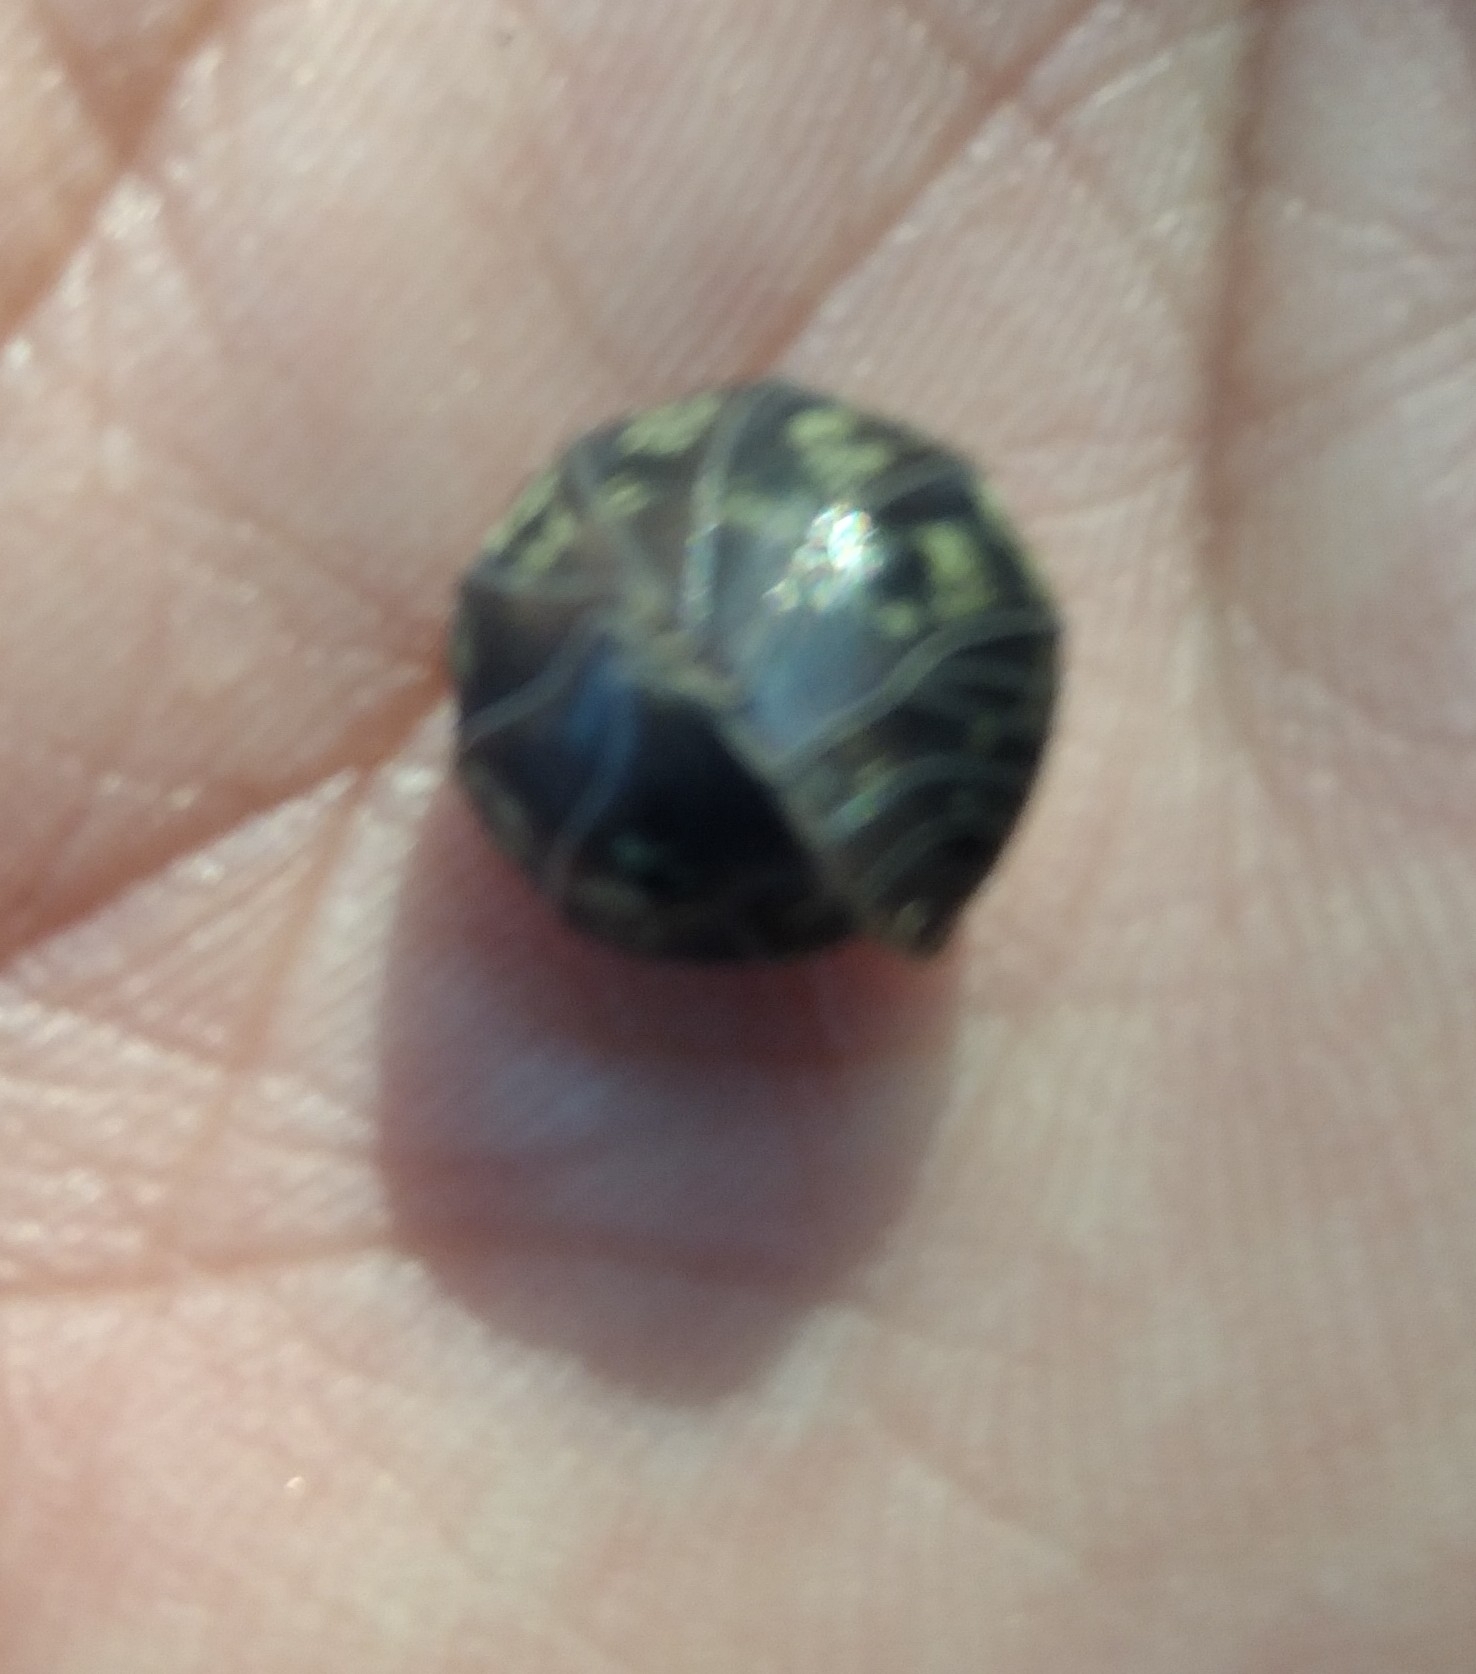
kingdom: Animalia
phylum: Arthropoda
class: Malacostraca
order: Isopoda
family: Armadillidiidae
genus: Armadillidium
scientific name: Armadillidium vulgare
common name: Common pill woodlouse
